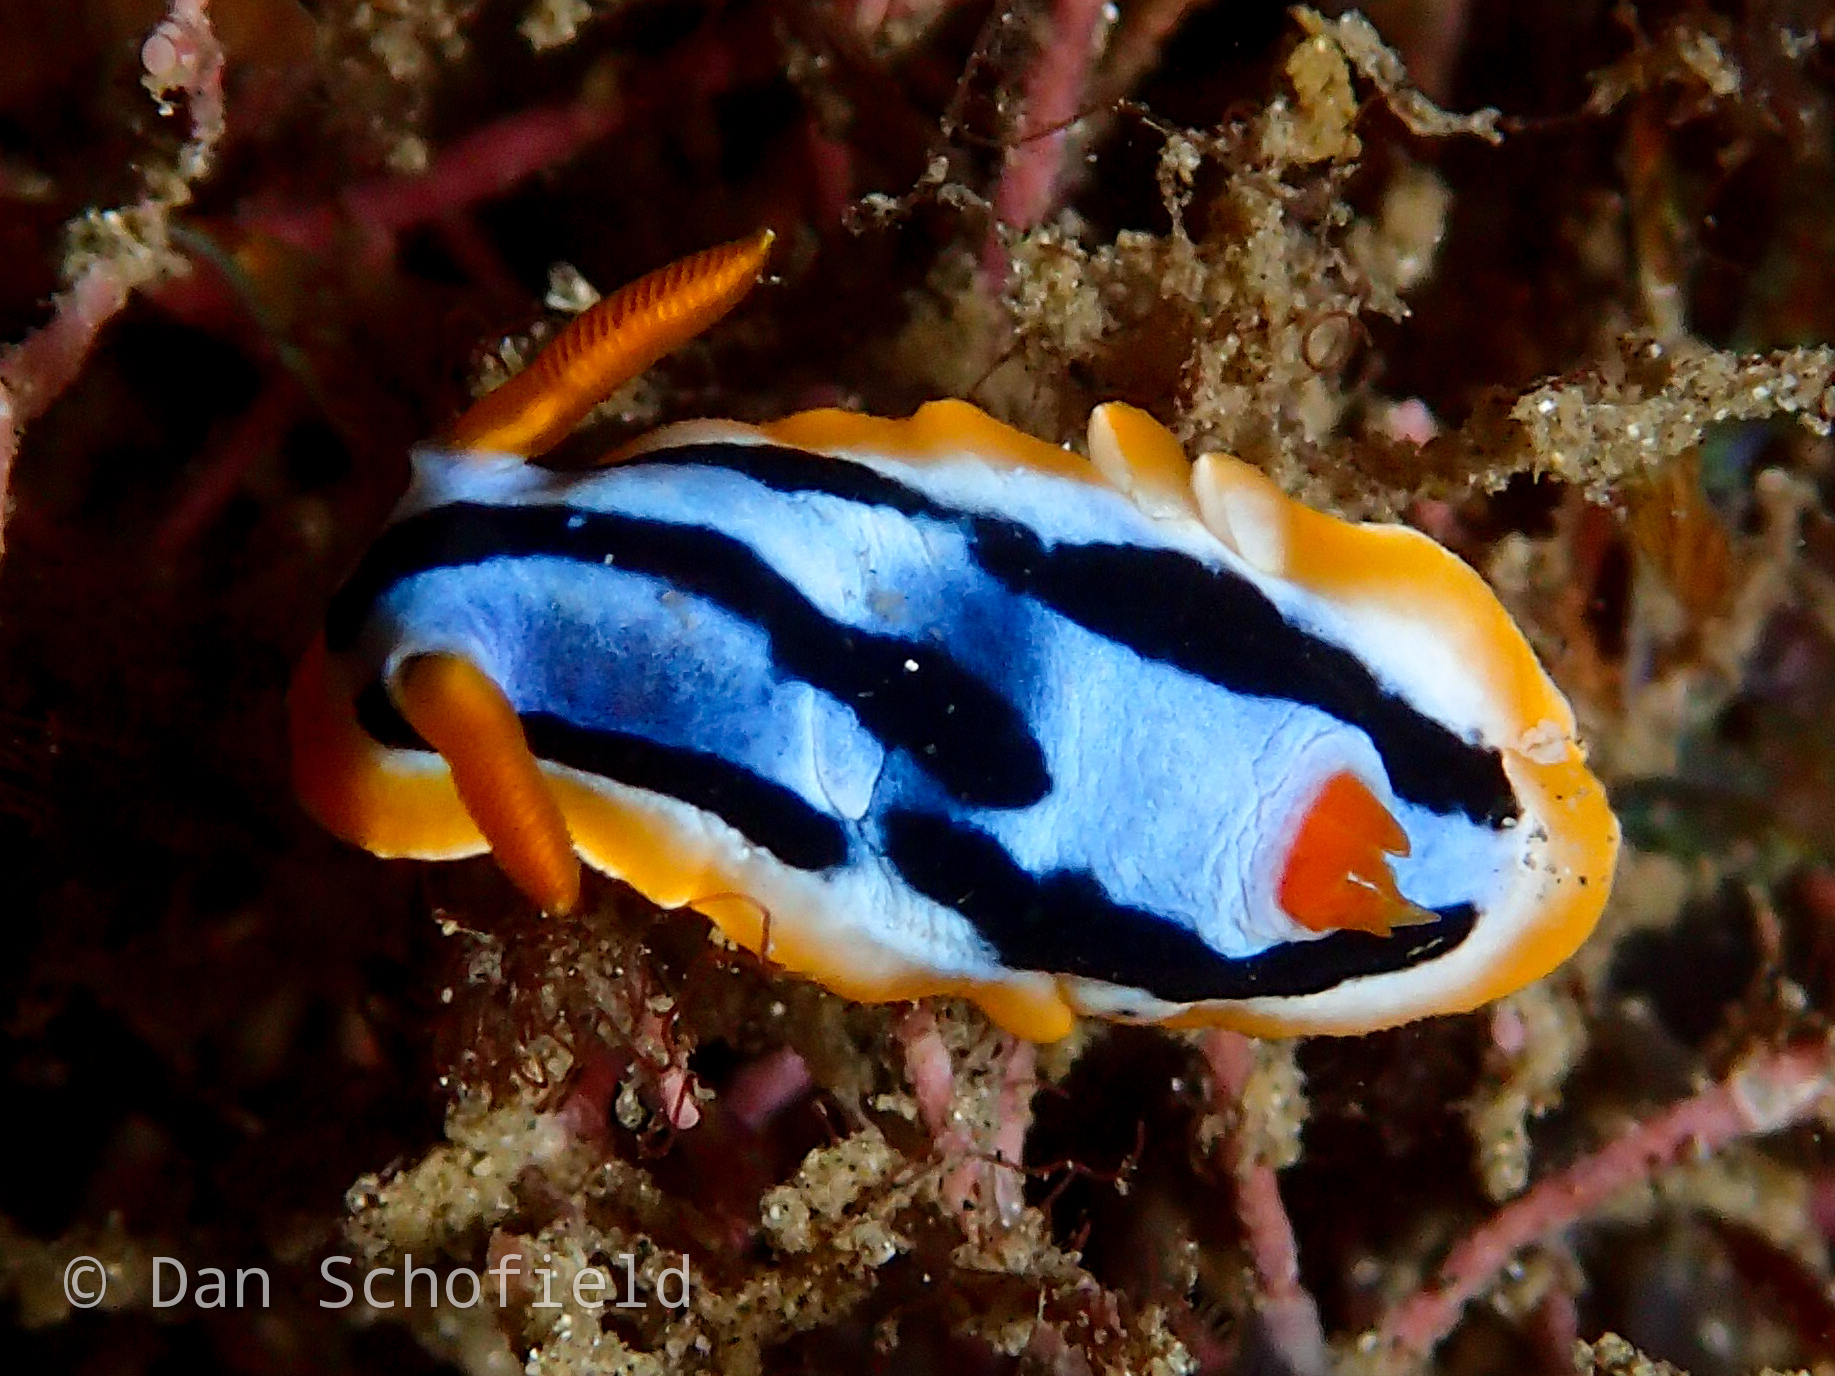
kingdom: Animalia
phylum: Mollusca
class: Gastropoda
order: Nudibranchia
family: Chromodorididae
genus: Chromodoris
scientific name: Chromodoris strigata
